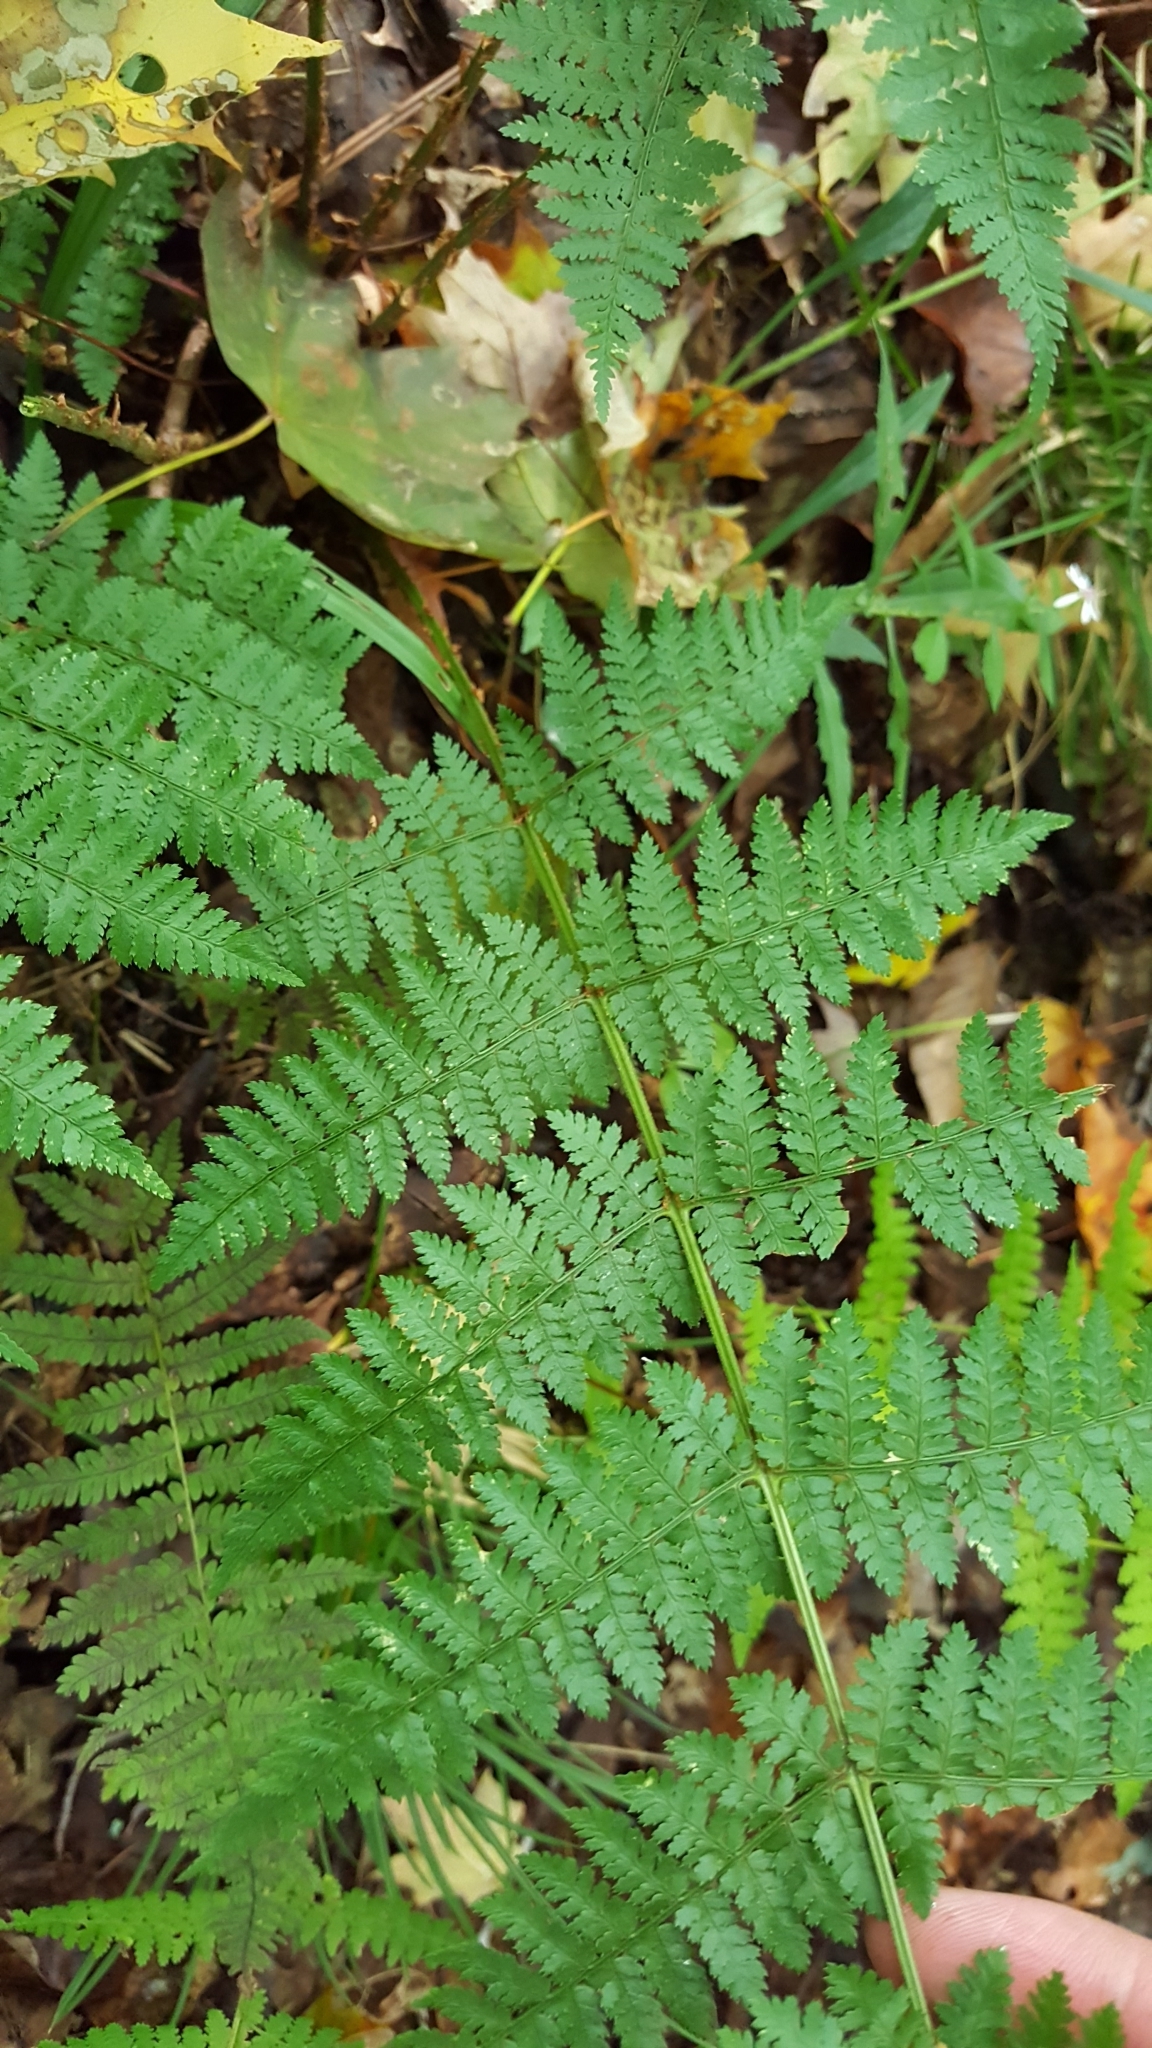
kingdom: Plantae
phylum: Tracheophyta
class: Polypodiopsida
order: Polypodiales
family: Dryopteridaceae
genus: Dryopteris
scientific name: Dryopteris intermedia
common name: Evergreen wood fern
